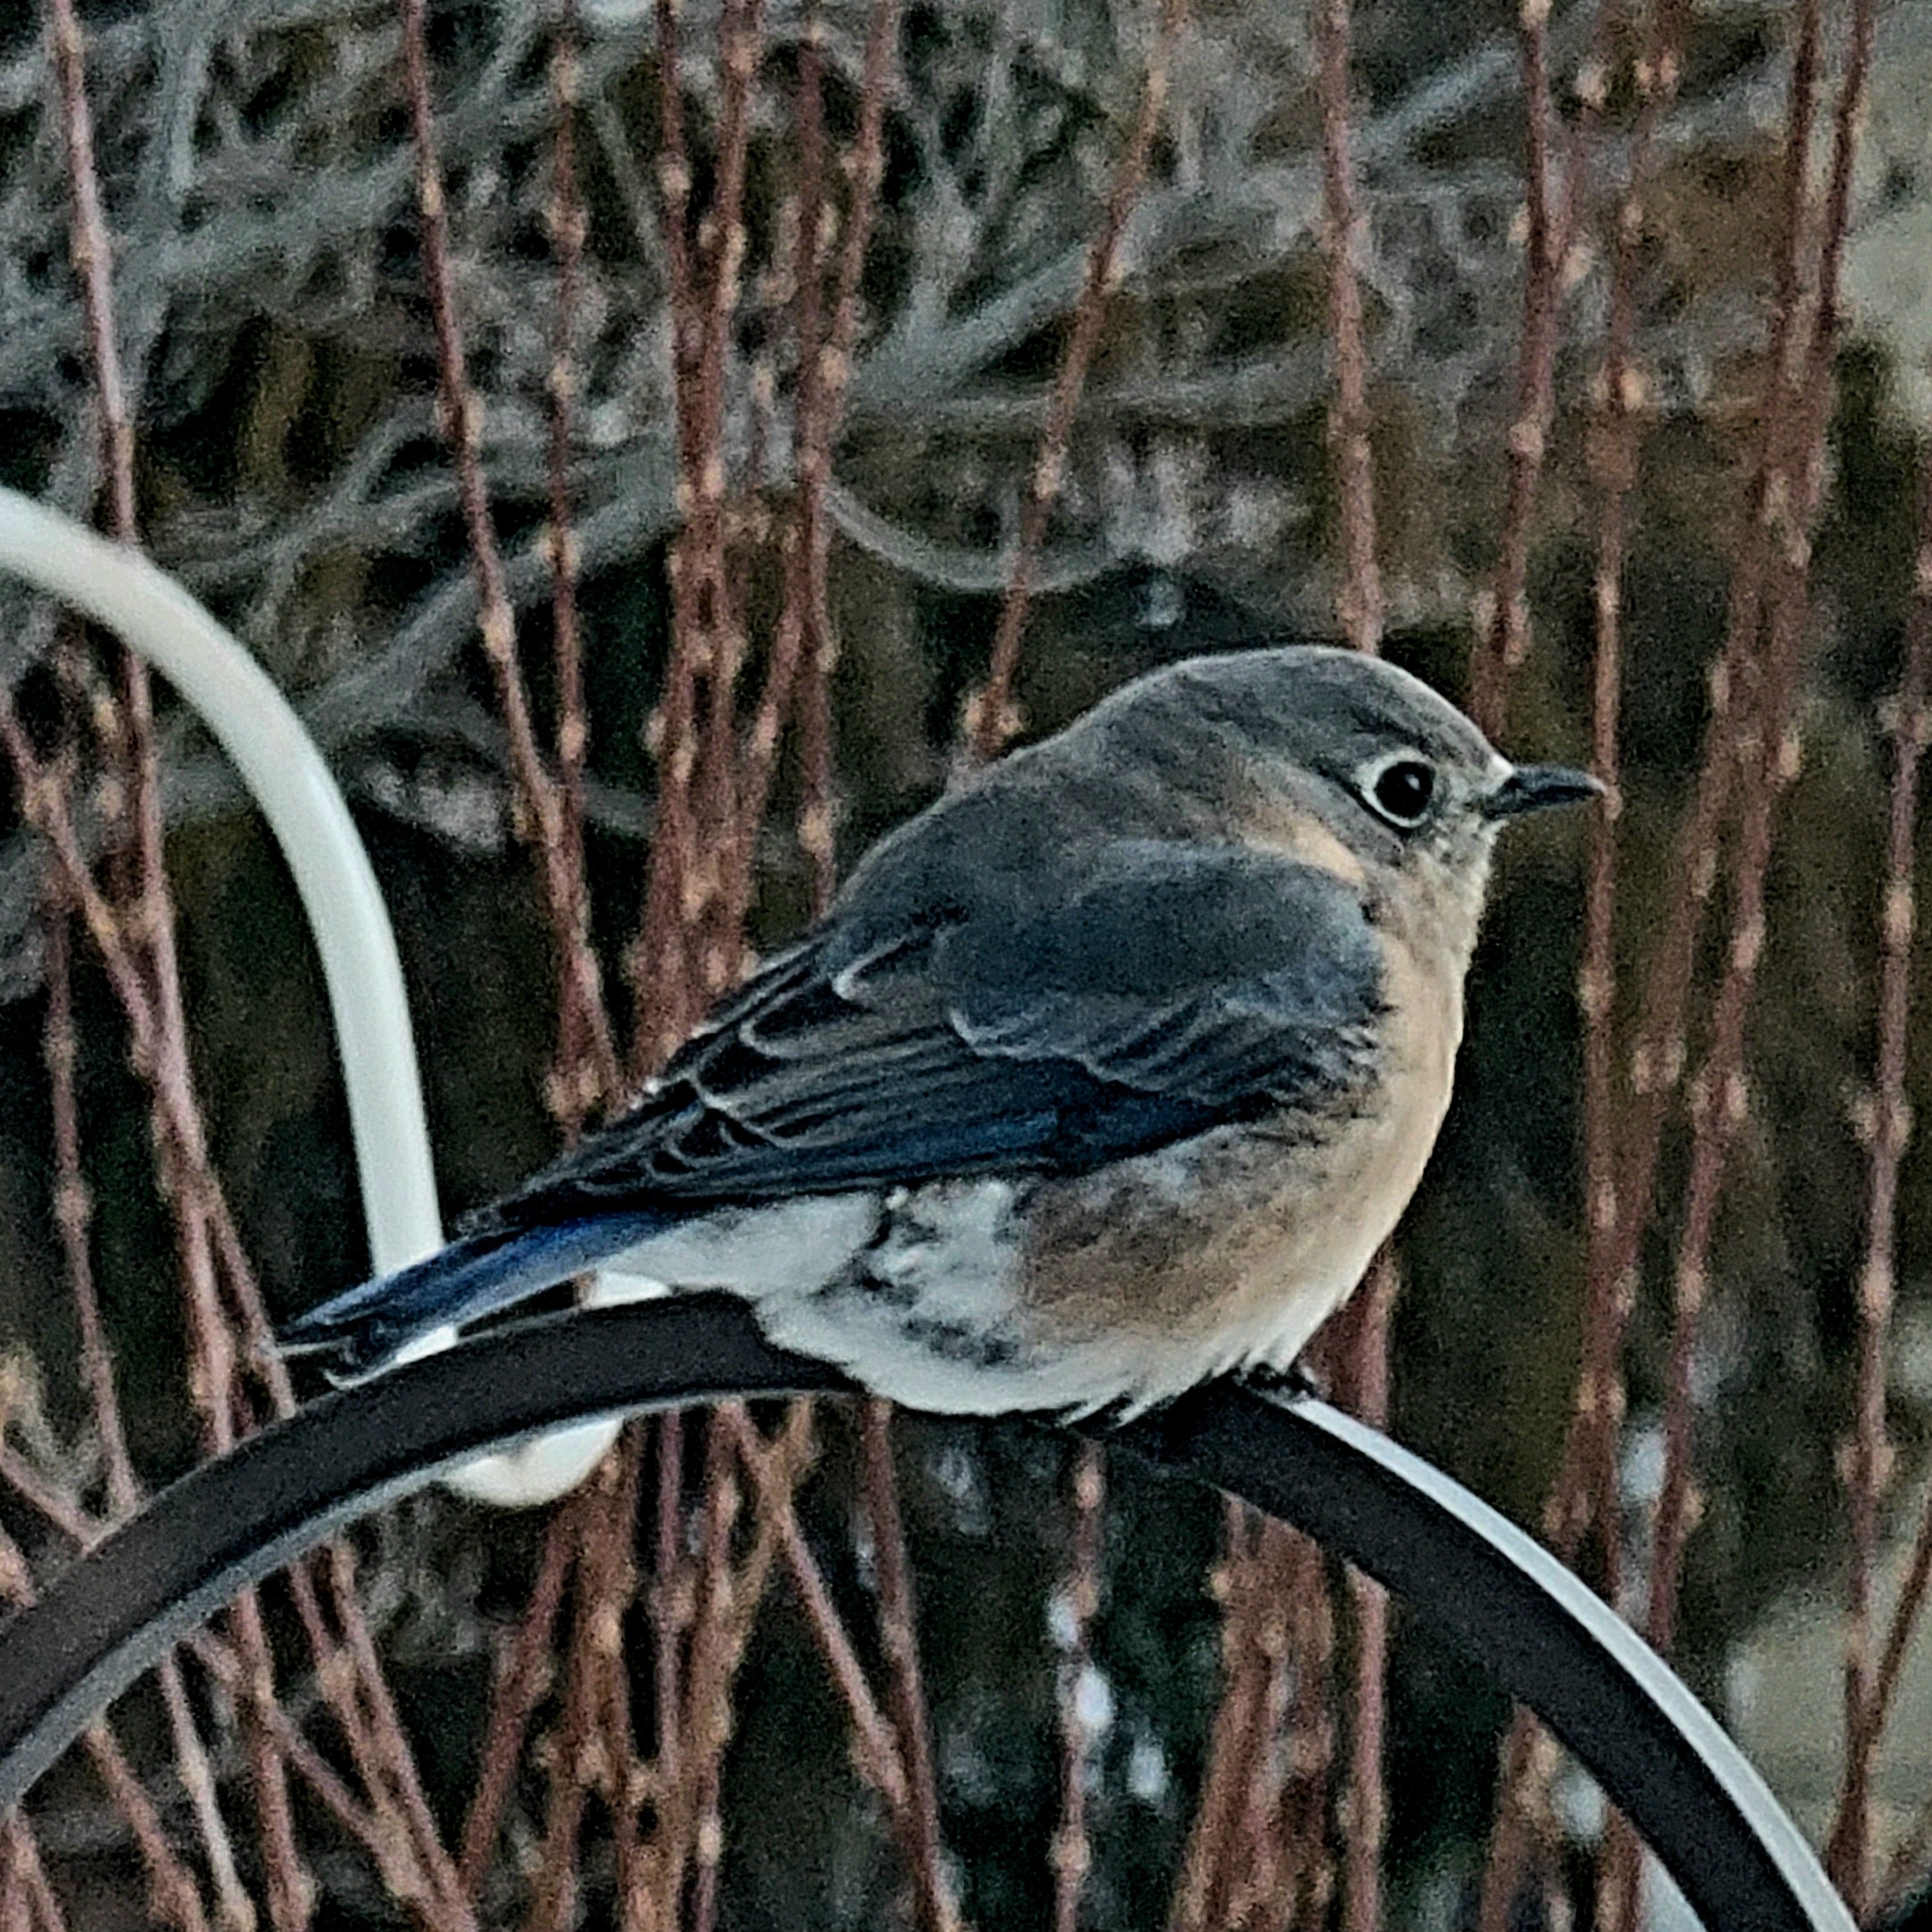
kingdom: Animalia
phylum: Chordata
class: Aves
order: Passeriformes
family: Turdidae
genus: Sialia
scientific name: Sialia sialis
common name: Eastern bluebird
